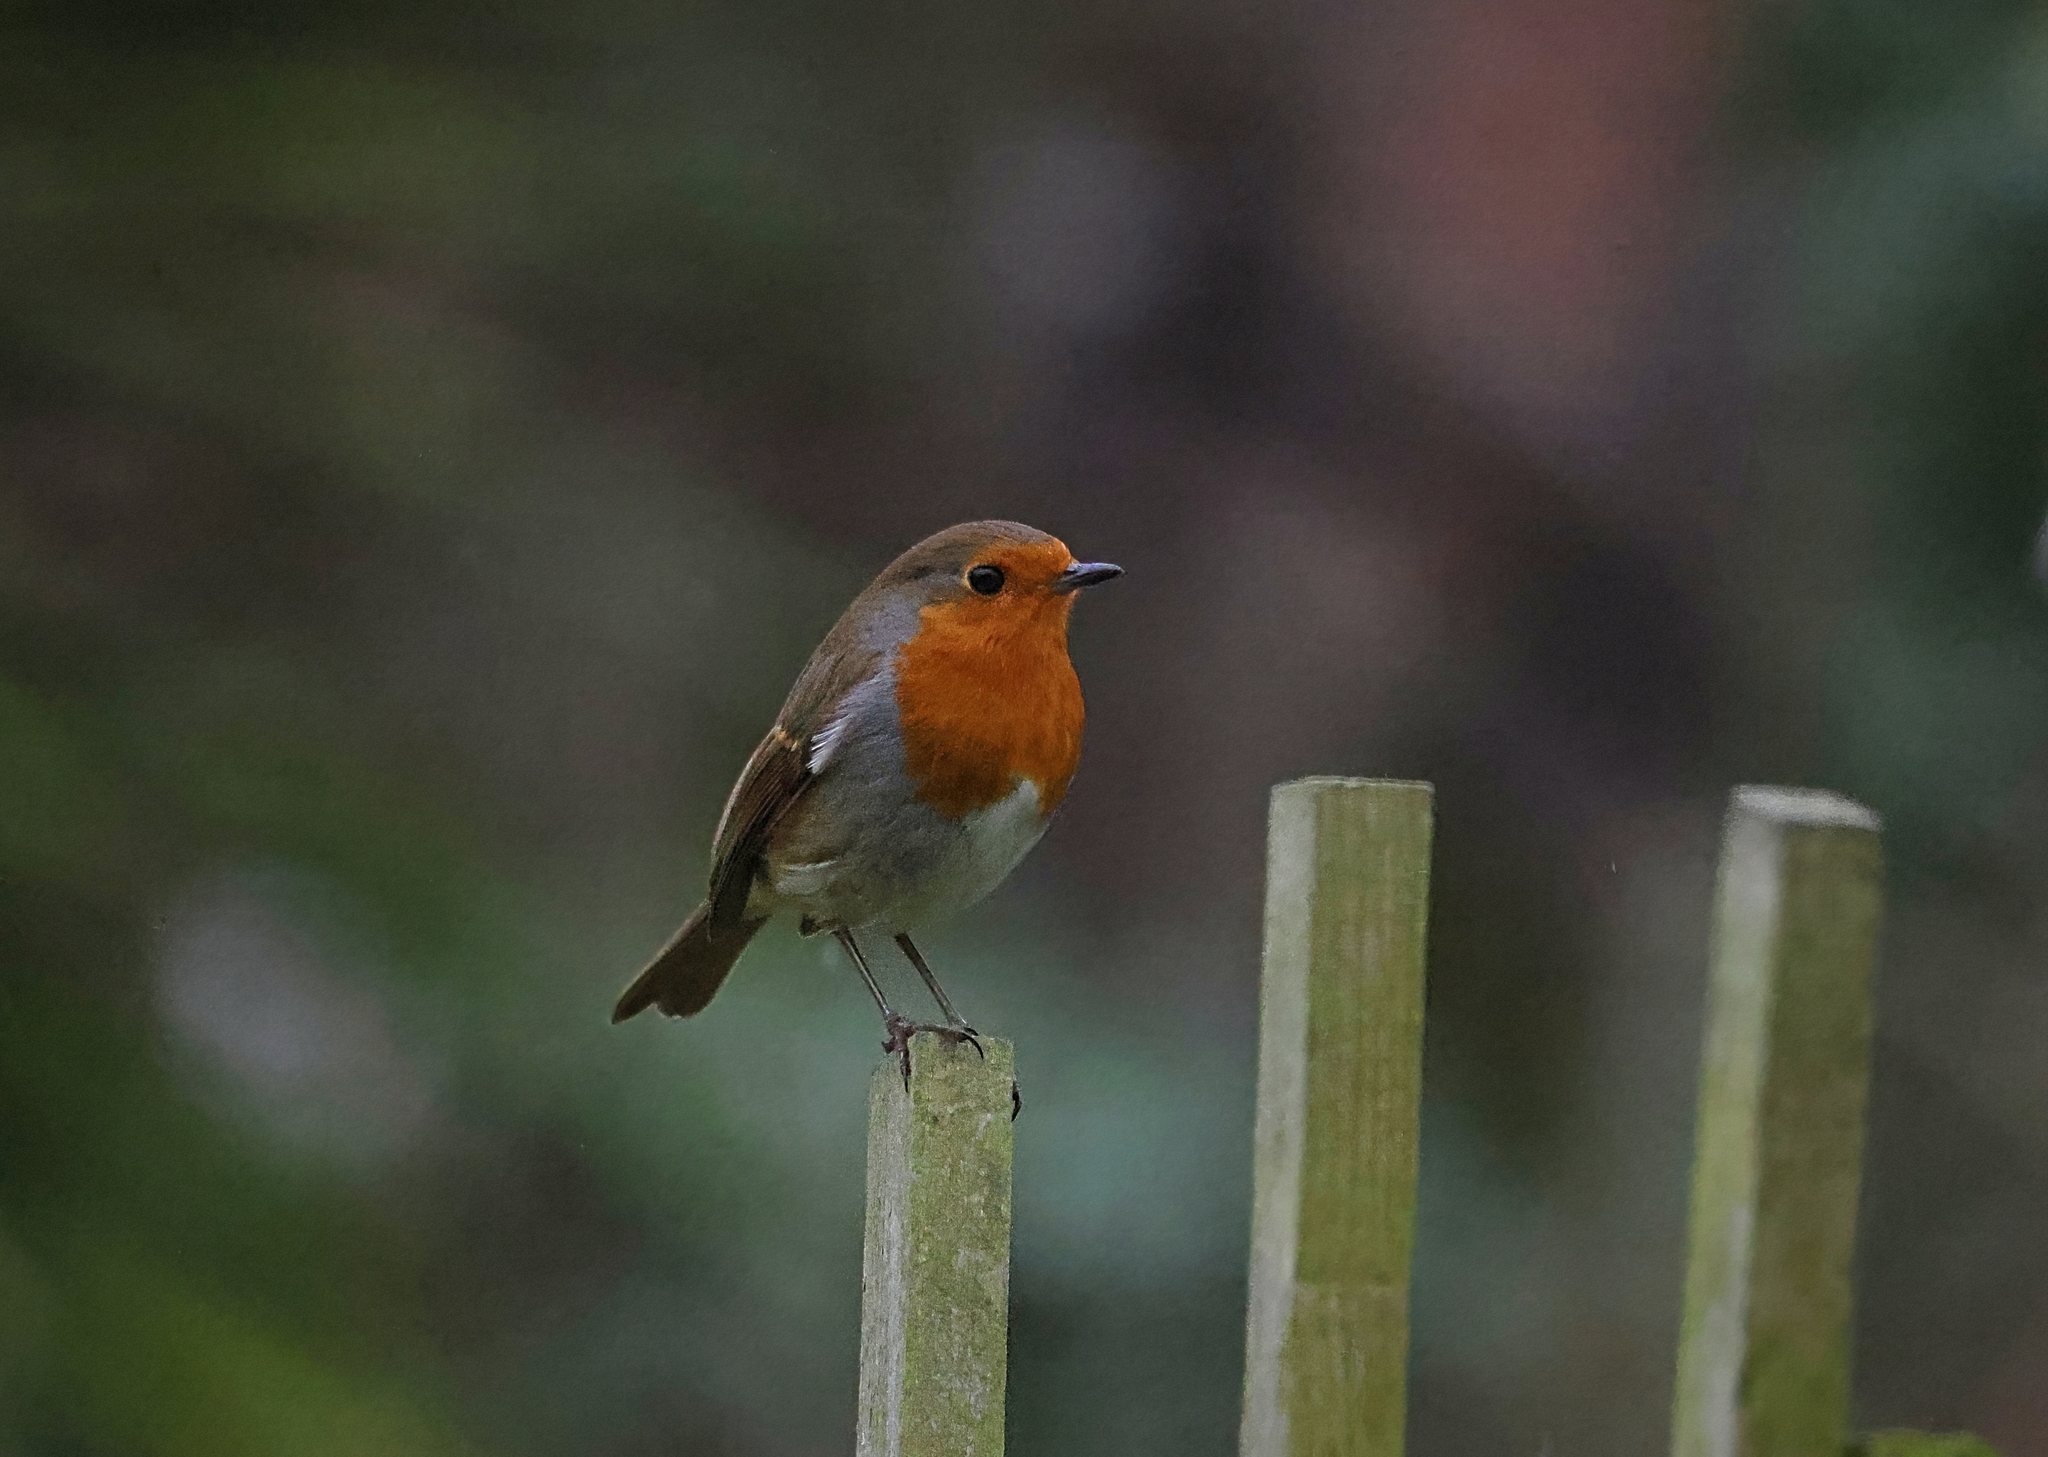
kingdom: Animalia
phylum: Chordata
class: Aves
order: Passeriformes
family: Muscicapidae
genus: Erithacus
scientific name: Erithacus rubecula
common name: European robin
